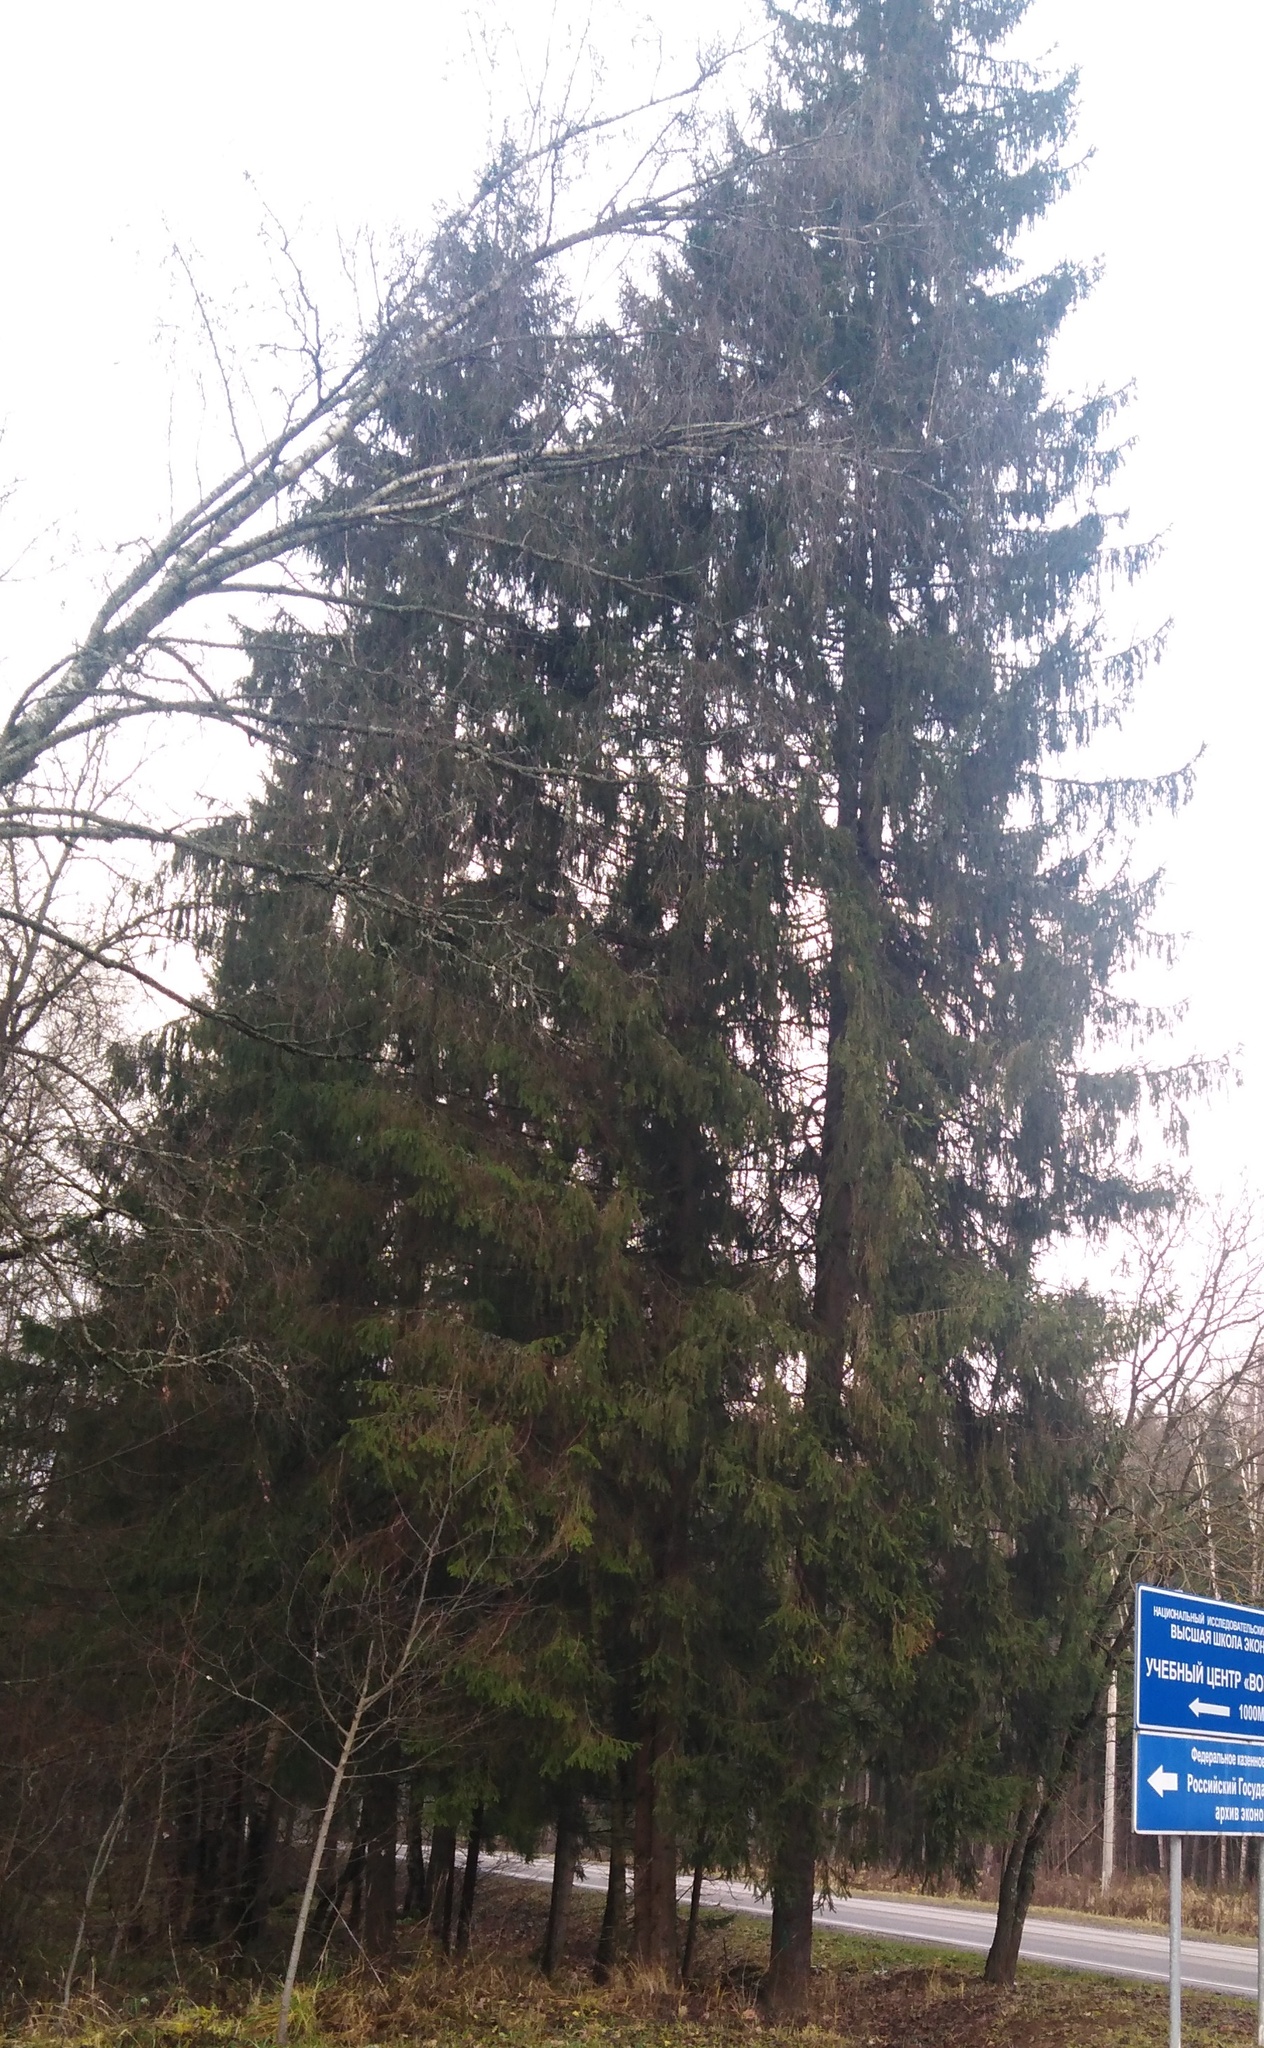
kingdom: Plantae
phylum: Tracheophyta
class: Pinopsida
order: Pinales
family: Pinaceae
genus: Picea
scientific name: Picea abies
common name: Norway spruce
